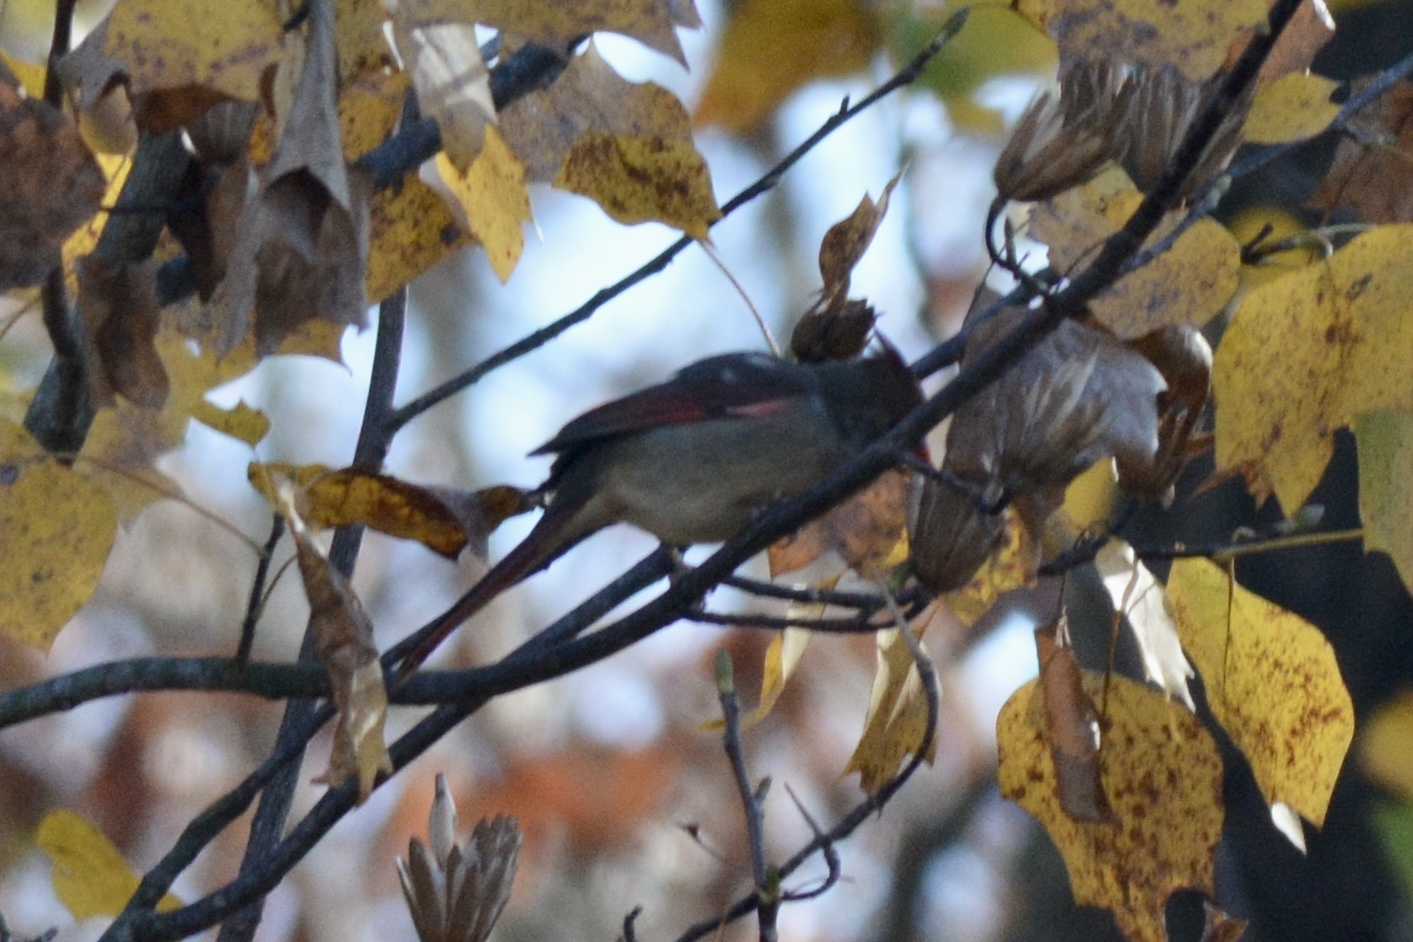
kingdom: Animalia
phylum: Chordata
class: Aves
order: Passeriformes
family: Cardinalidae
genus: Cardinalis
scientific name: Cardinalis cardinalis
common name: Northern cardinal
